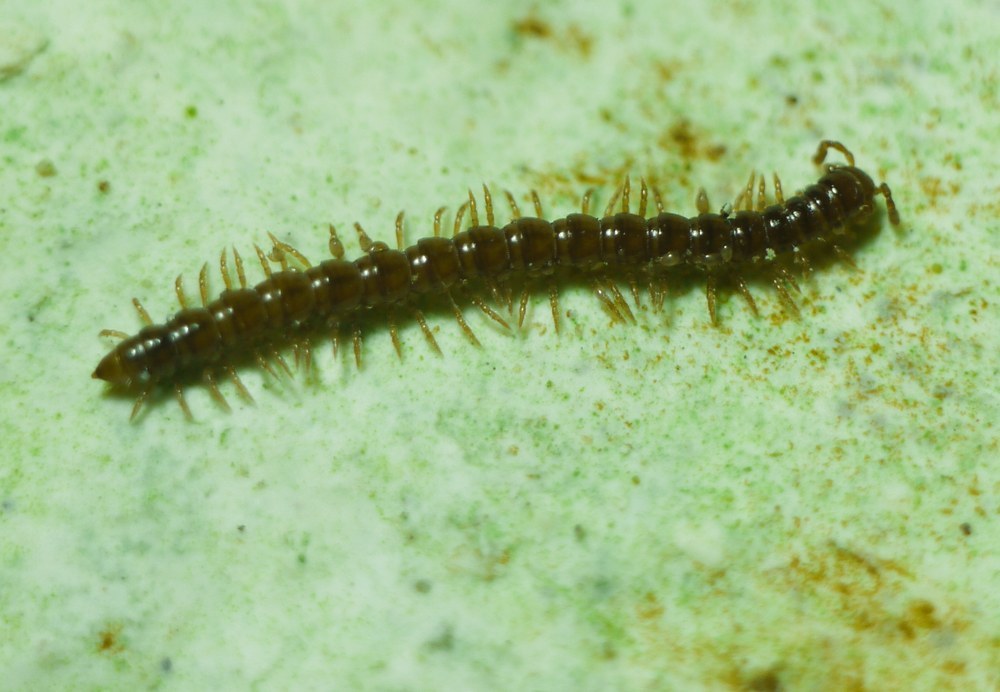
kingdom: Animalia
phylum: Arthropoda
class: Diplopoda
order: Polydesmida
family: Paradoxosomatidae
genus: Strongylosoma
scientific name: Strongylosoma stigmatosus
